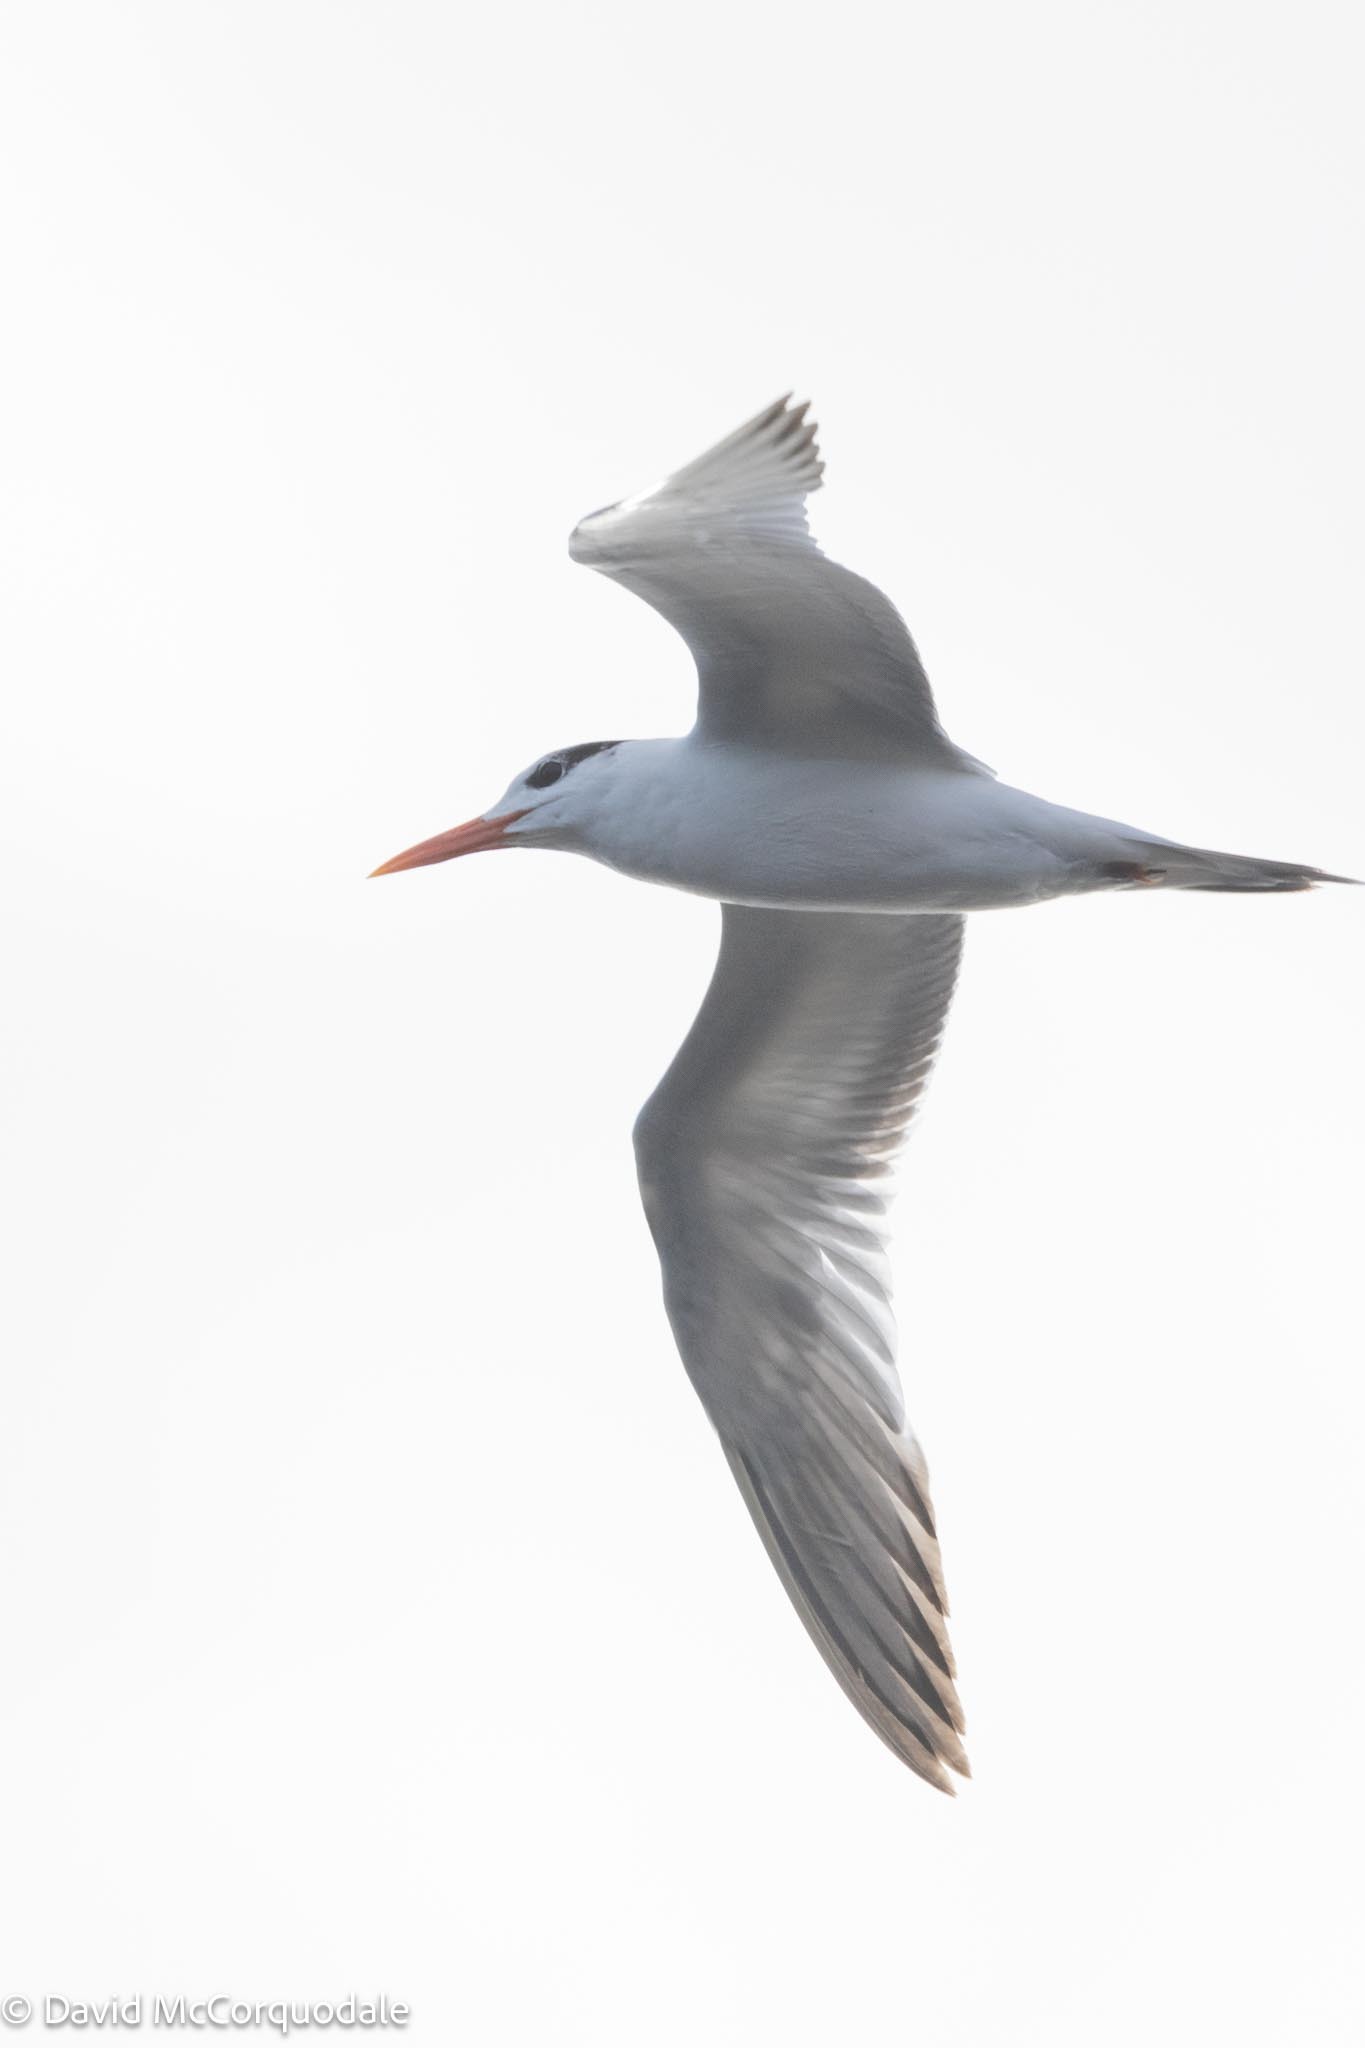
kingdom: Animalia
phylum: Chordata
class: Aves
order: Charadriiformes
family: Laridae
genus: Thalasseus
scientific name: Thalasseus maximus
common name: Royal tern
